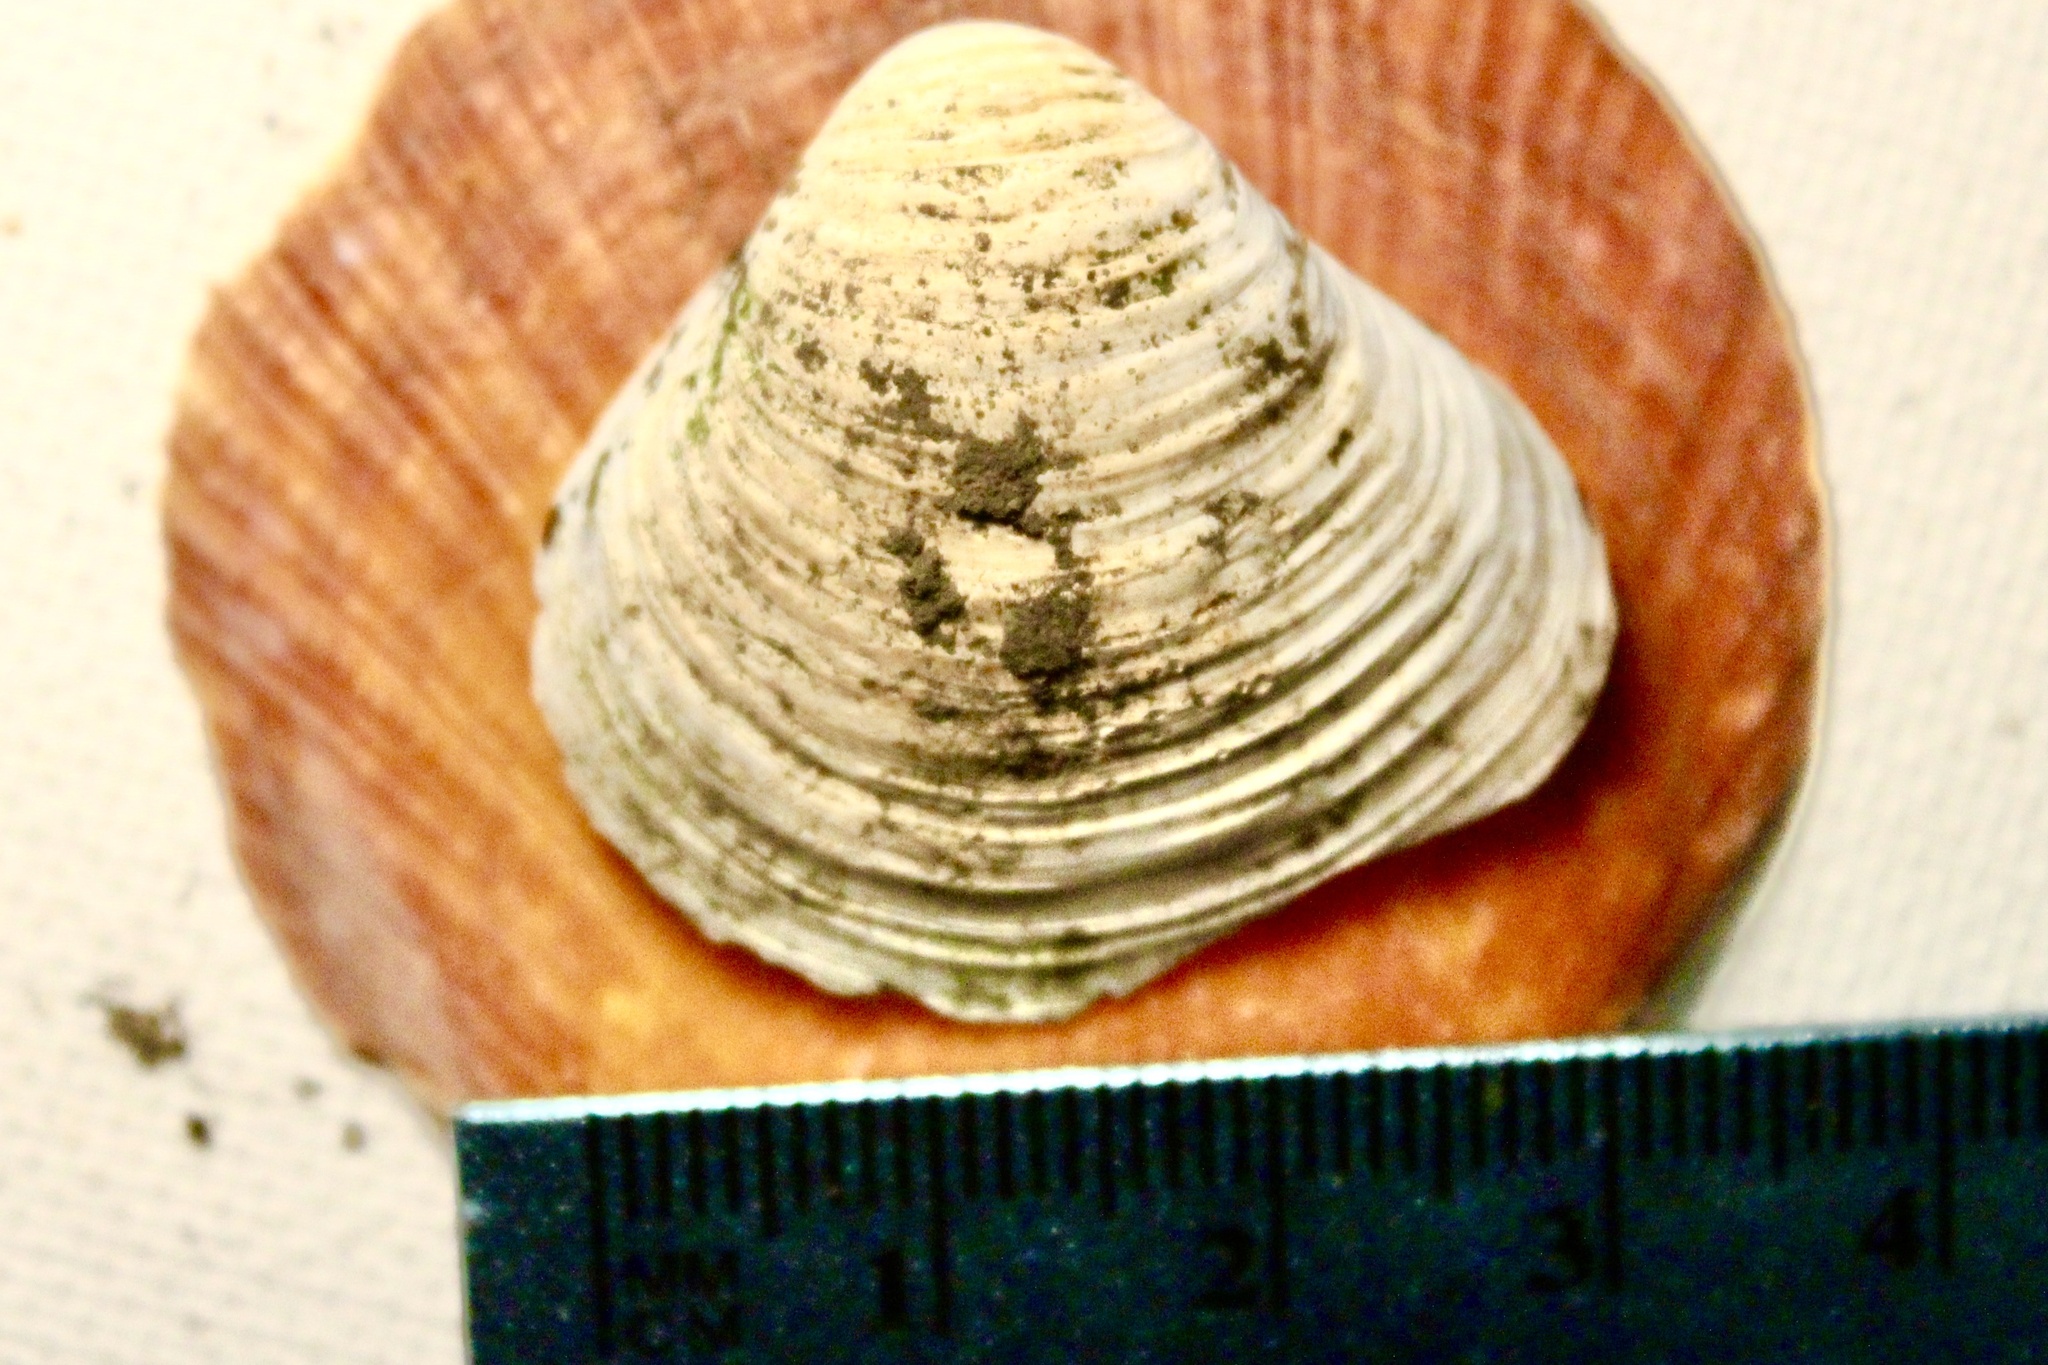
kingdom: Animalia
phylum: Mollusca
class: Bivalvia
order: Venerida
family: Cyrenidae
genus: Corbicula
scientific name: Corbicula fluminea
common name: Asian clam
